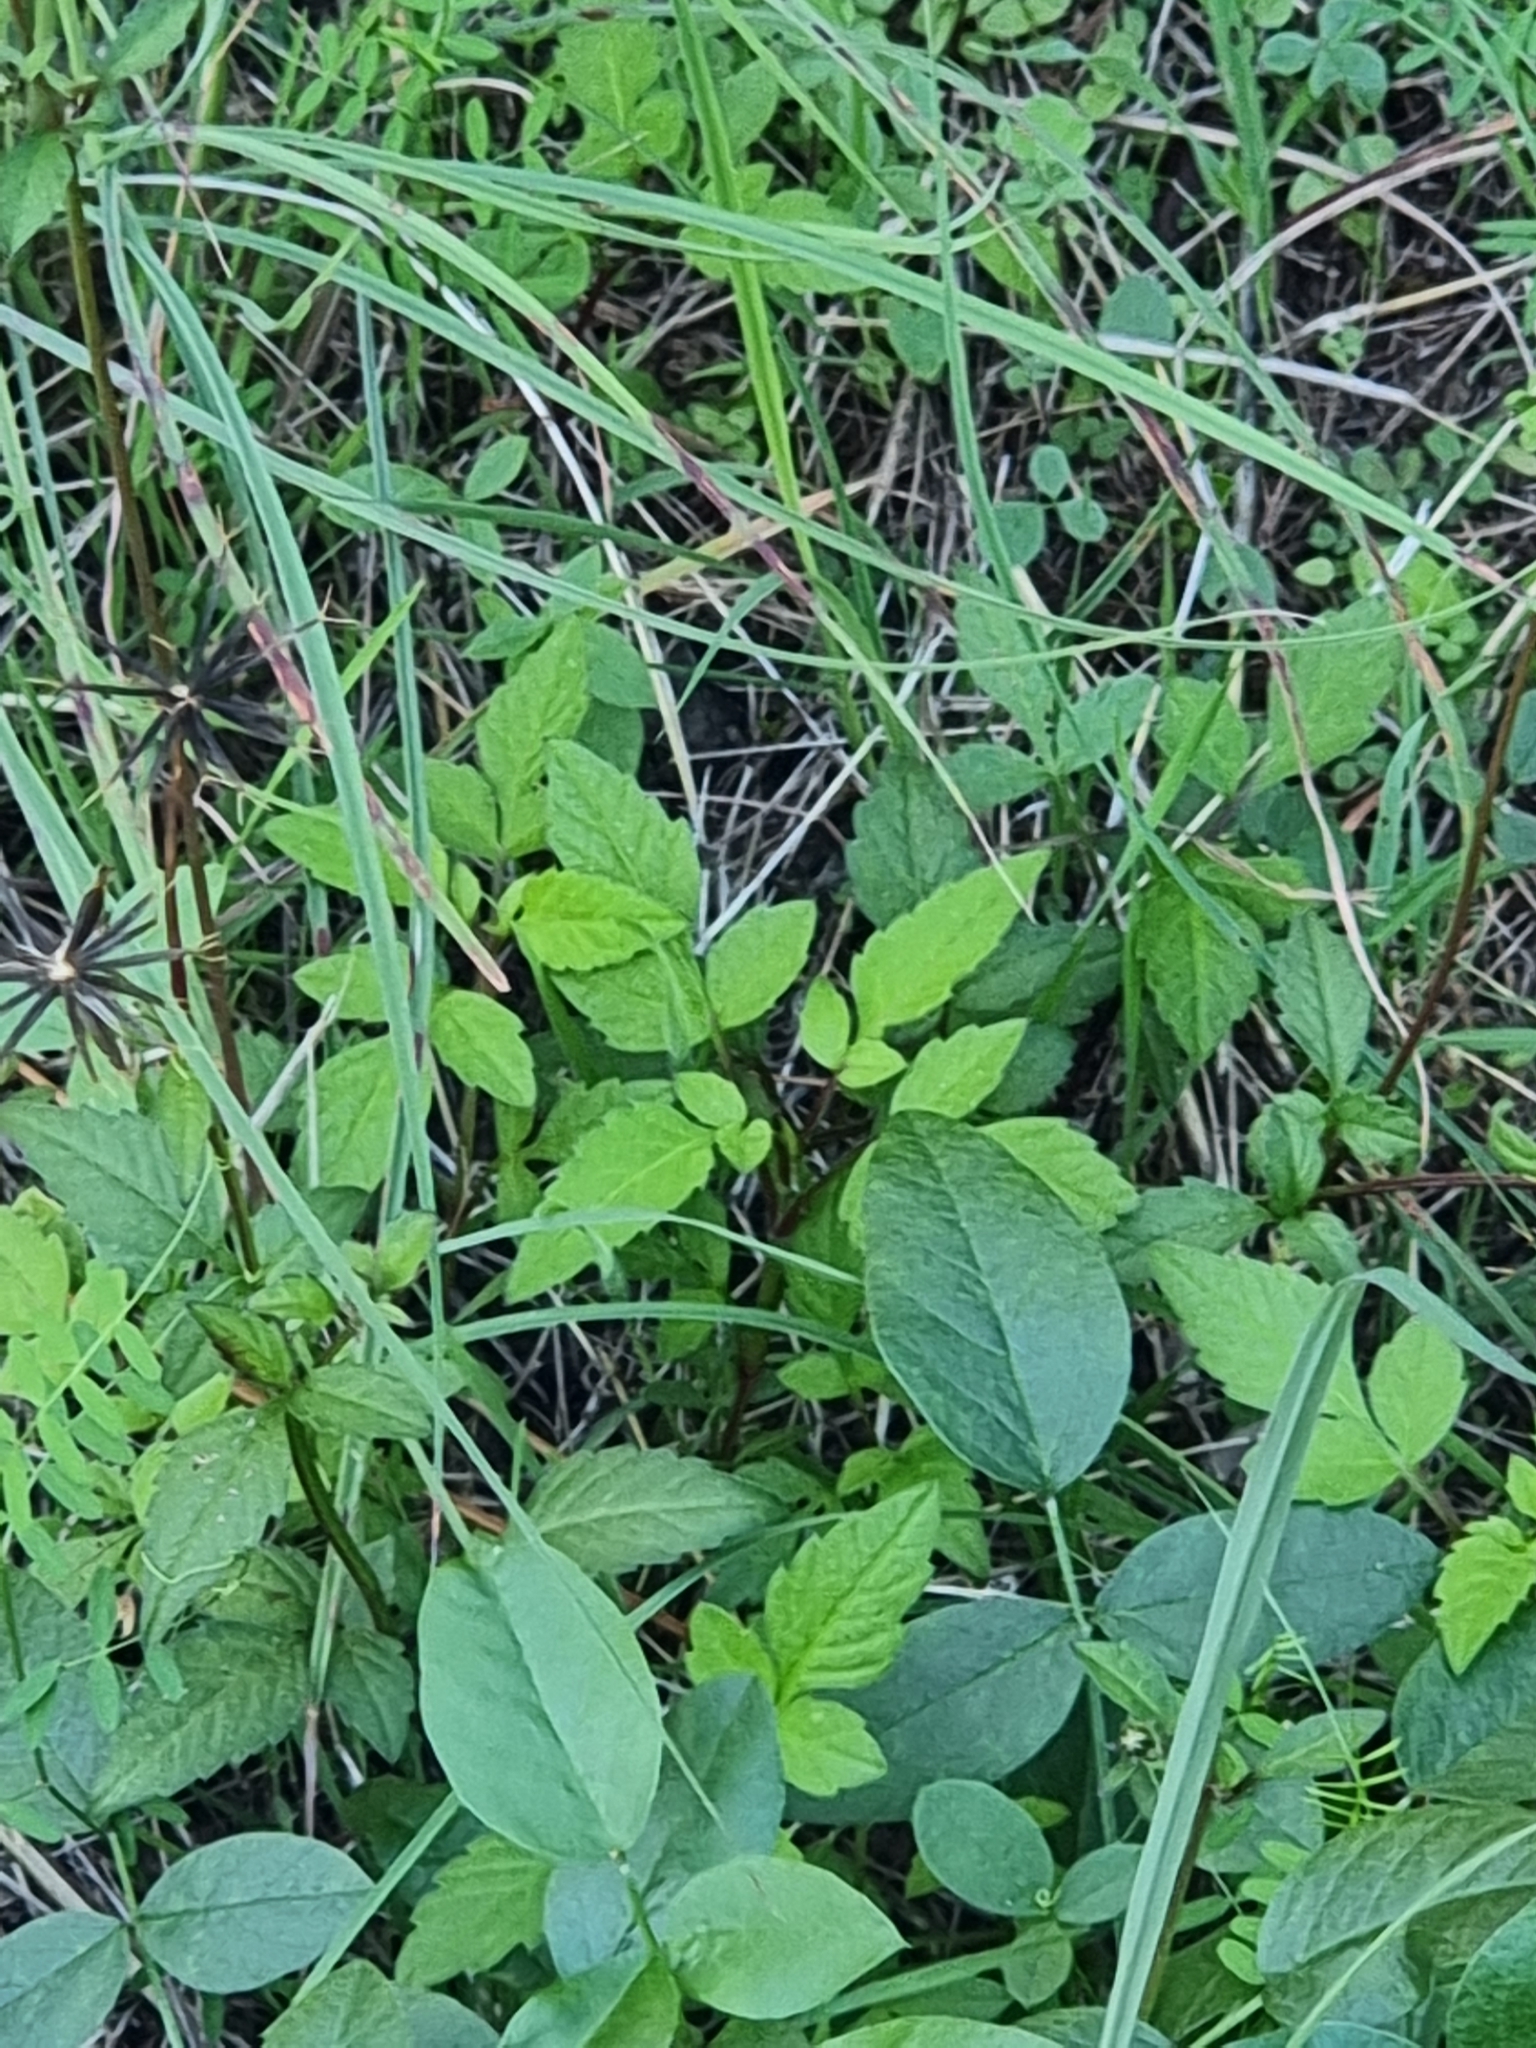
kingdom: Plantae
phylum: Tracheophyta
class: Magnoliopsida
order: Asterales
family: Asteraceae
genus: Bidens
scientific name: Bidens pilosa
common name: Black-jack
